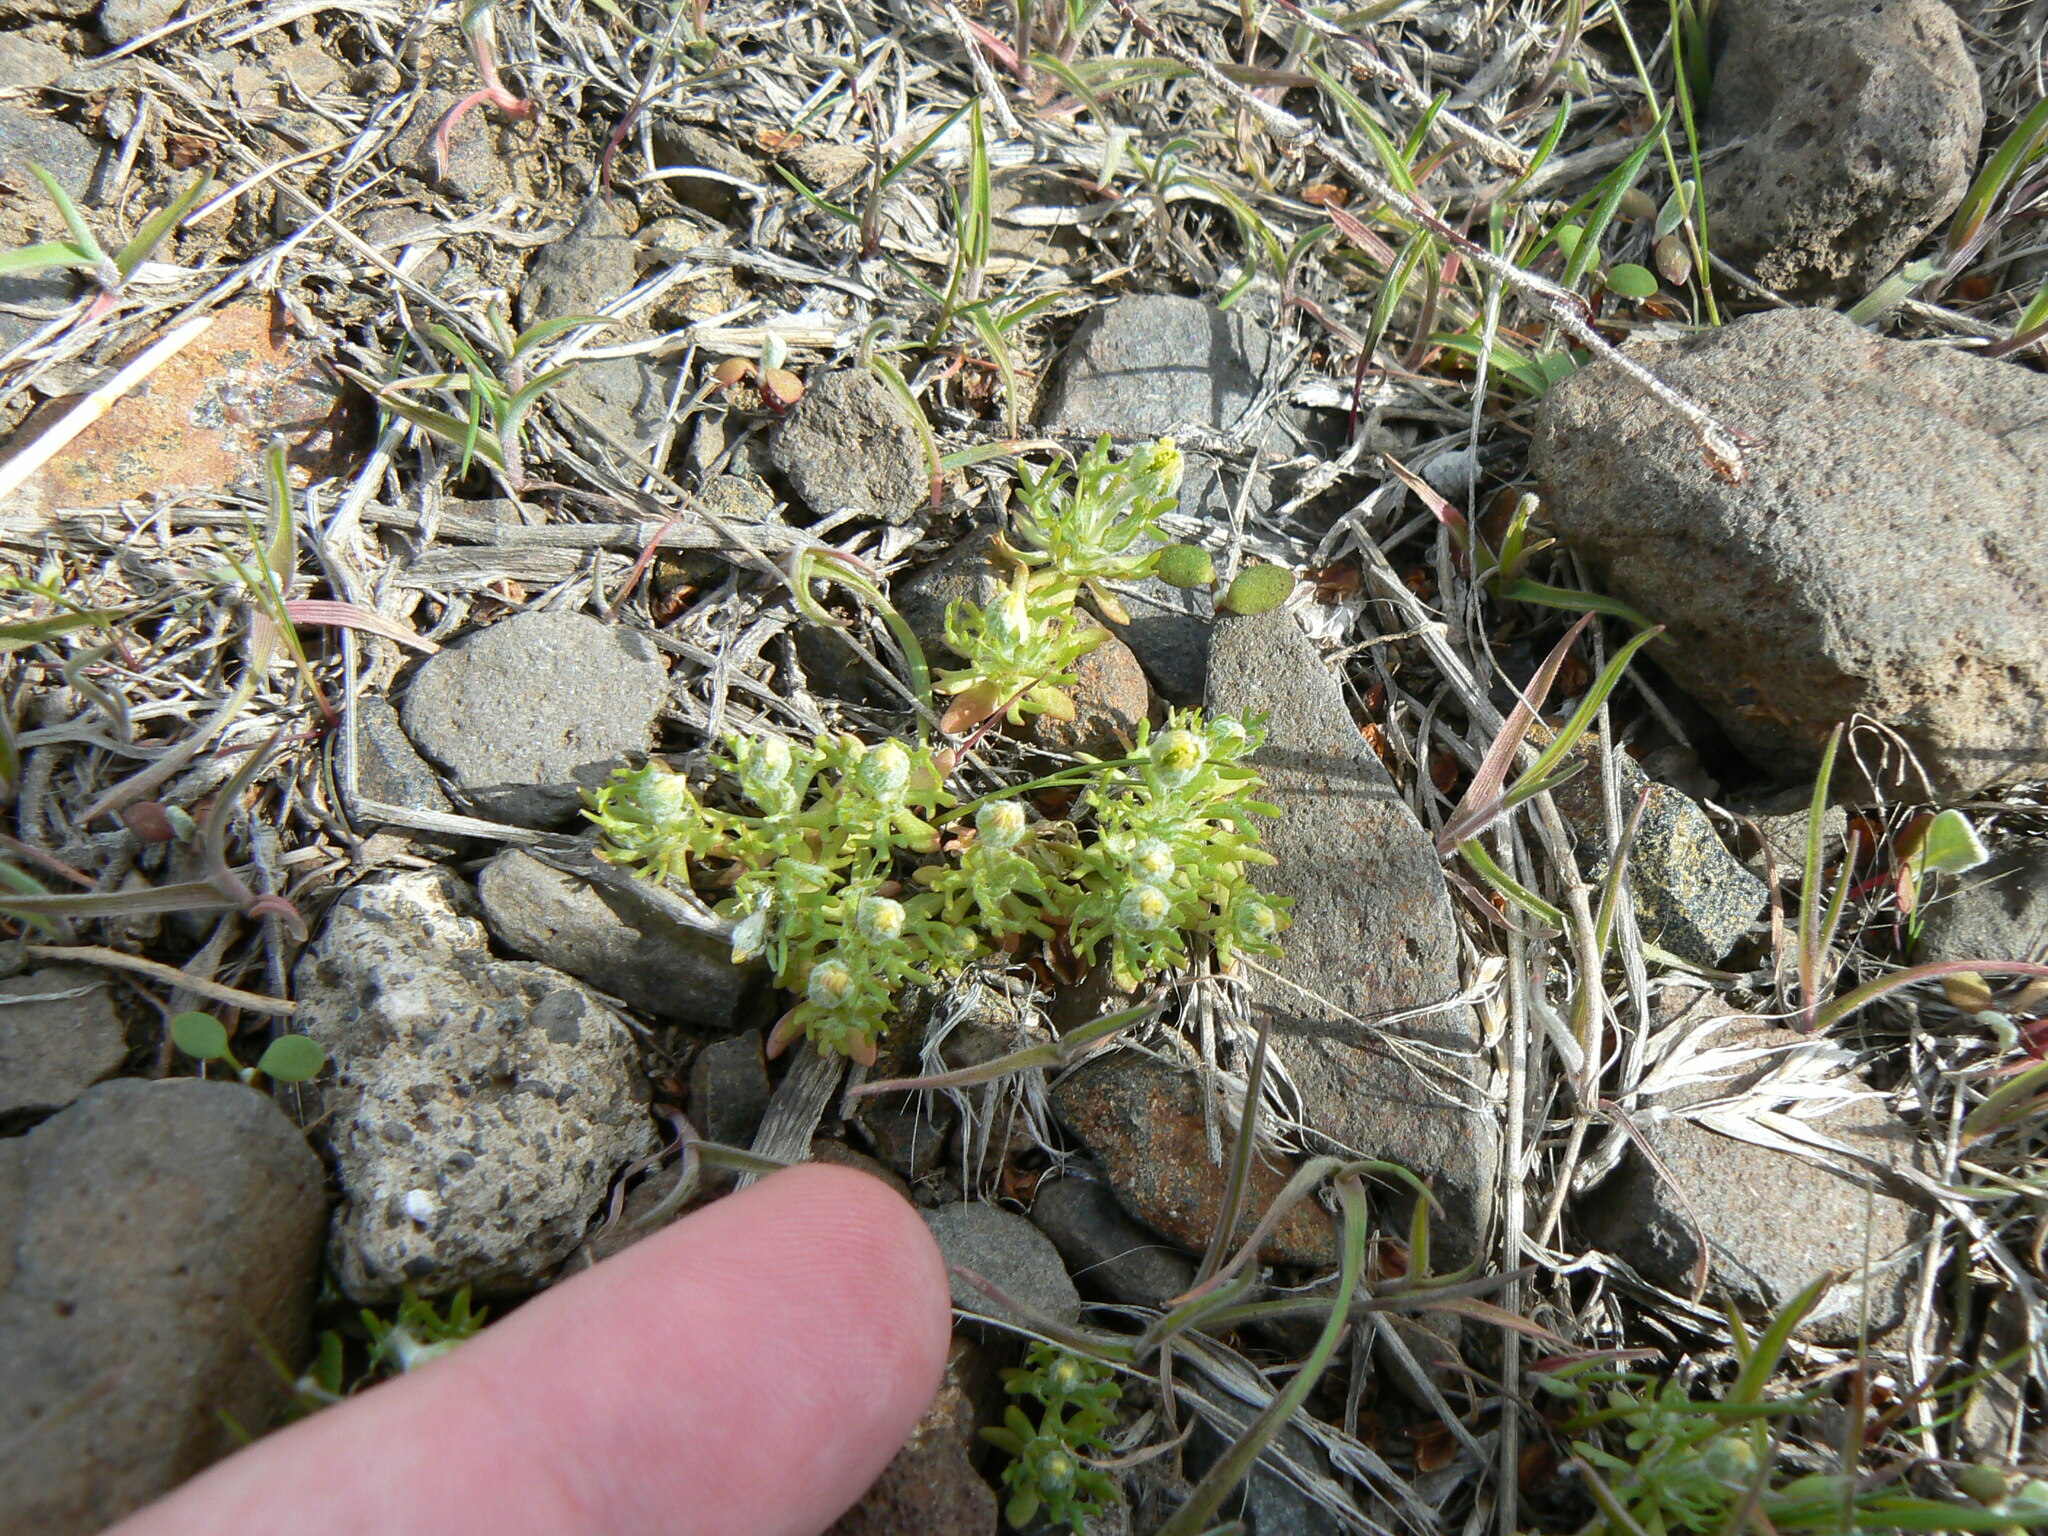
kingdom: Plantae
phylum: Tracheophyta
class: Magnoliopsida
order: Ranunculales
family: Ranunculaceae
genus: Ceratocephala
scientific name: Ceratocephala orthoceras
